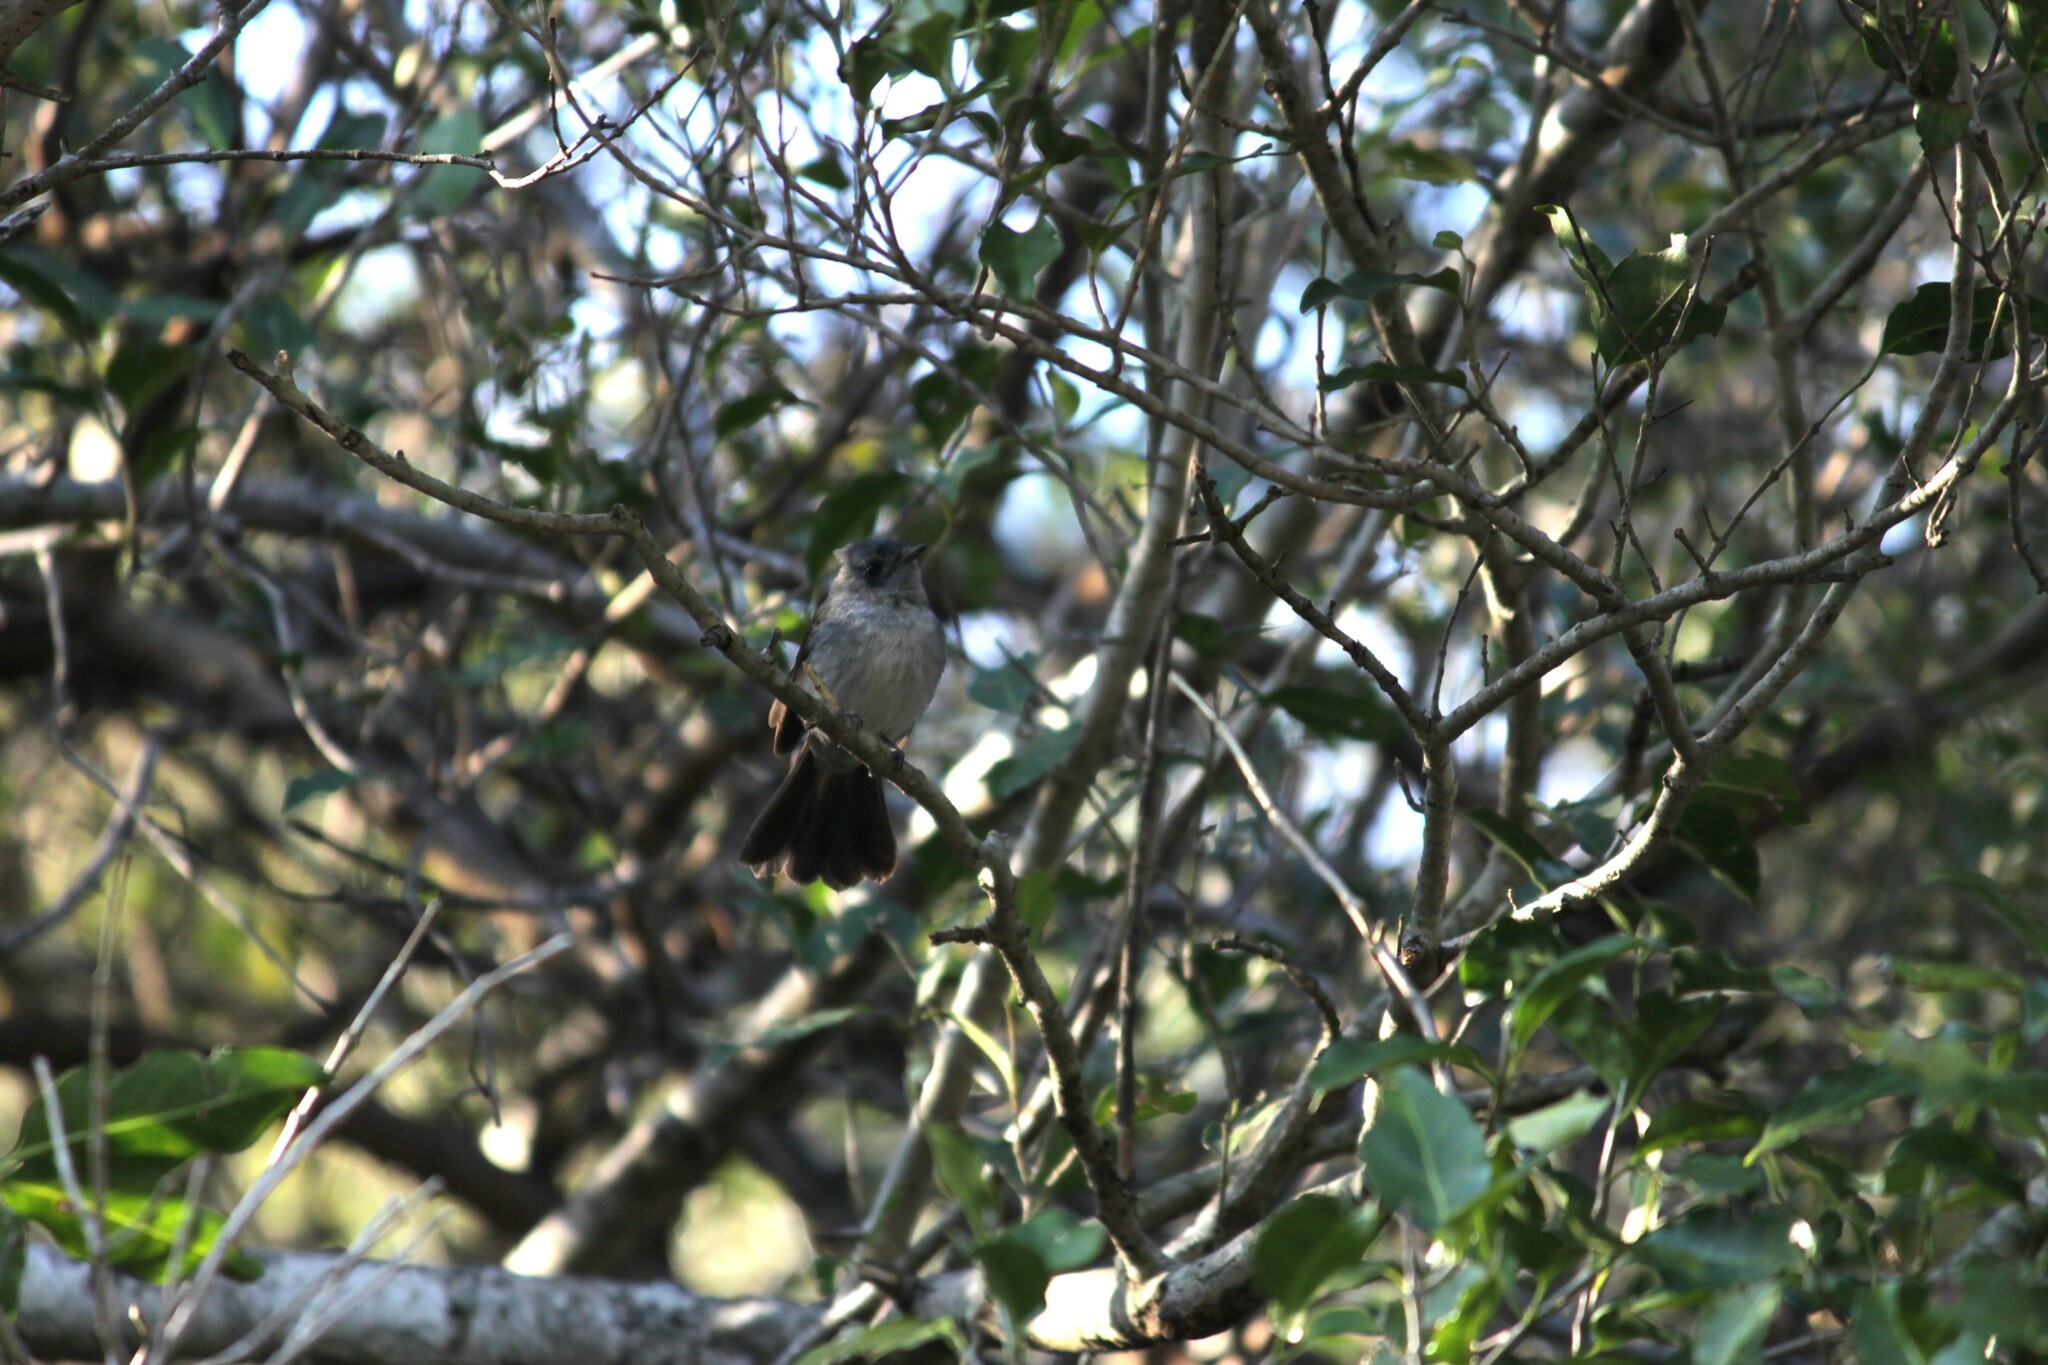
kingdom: Animalia
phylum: Chordata
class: Aves
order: Passeriformes
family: Monarchidae
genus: Trochocercus
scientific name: Trochocercus cyanomelas
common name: Blue-mantled crested flycatcher
